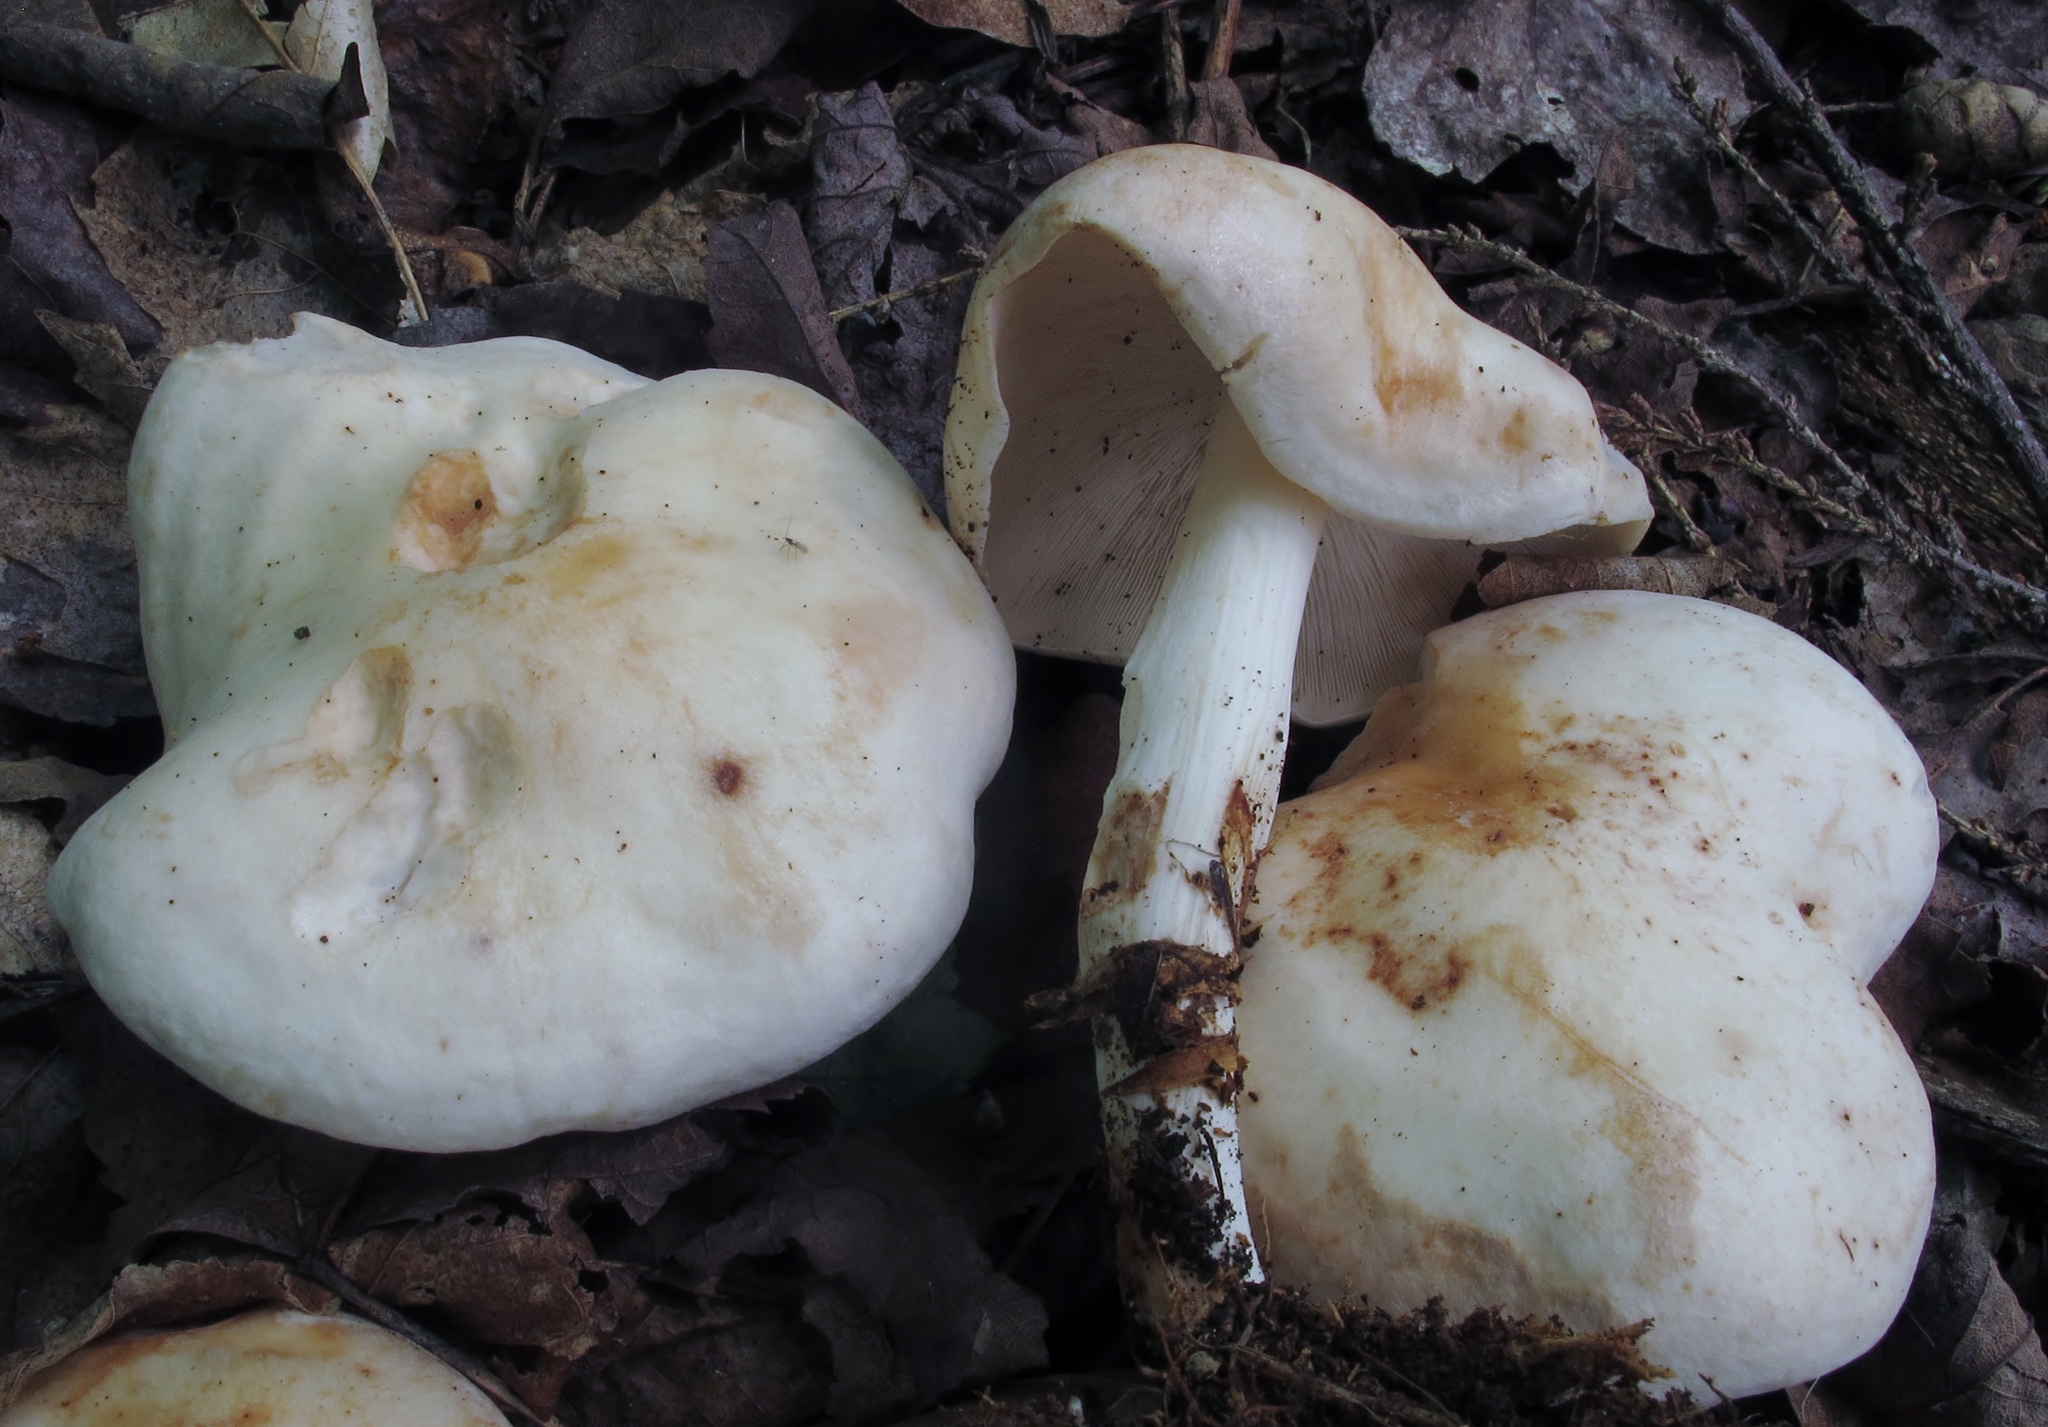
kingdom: Fungi
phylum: Basidiomycota
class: Agaricomycetes
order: Agaricales
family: Omphalotaceae
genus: Rhodocollybia
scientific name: Rhodocollybia maculata
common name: Spotted tough-shank
